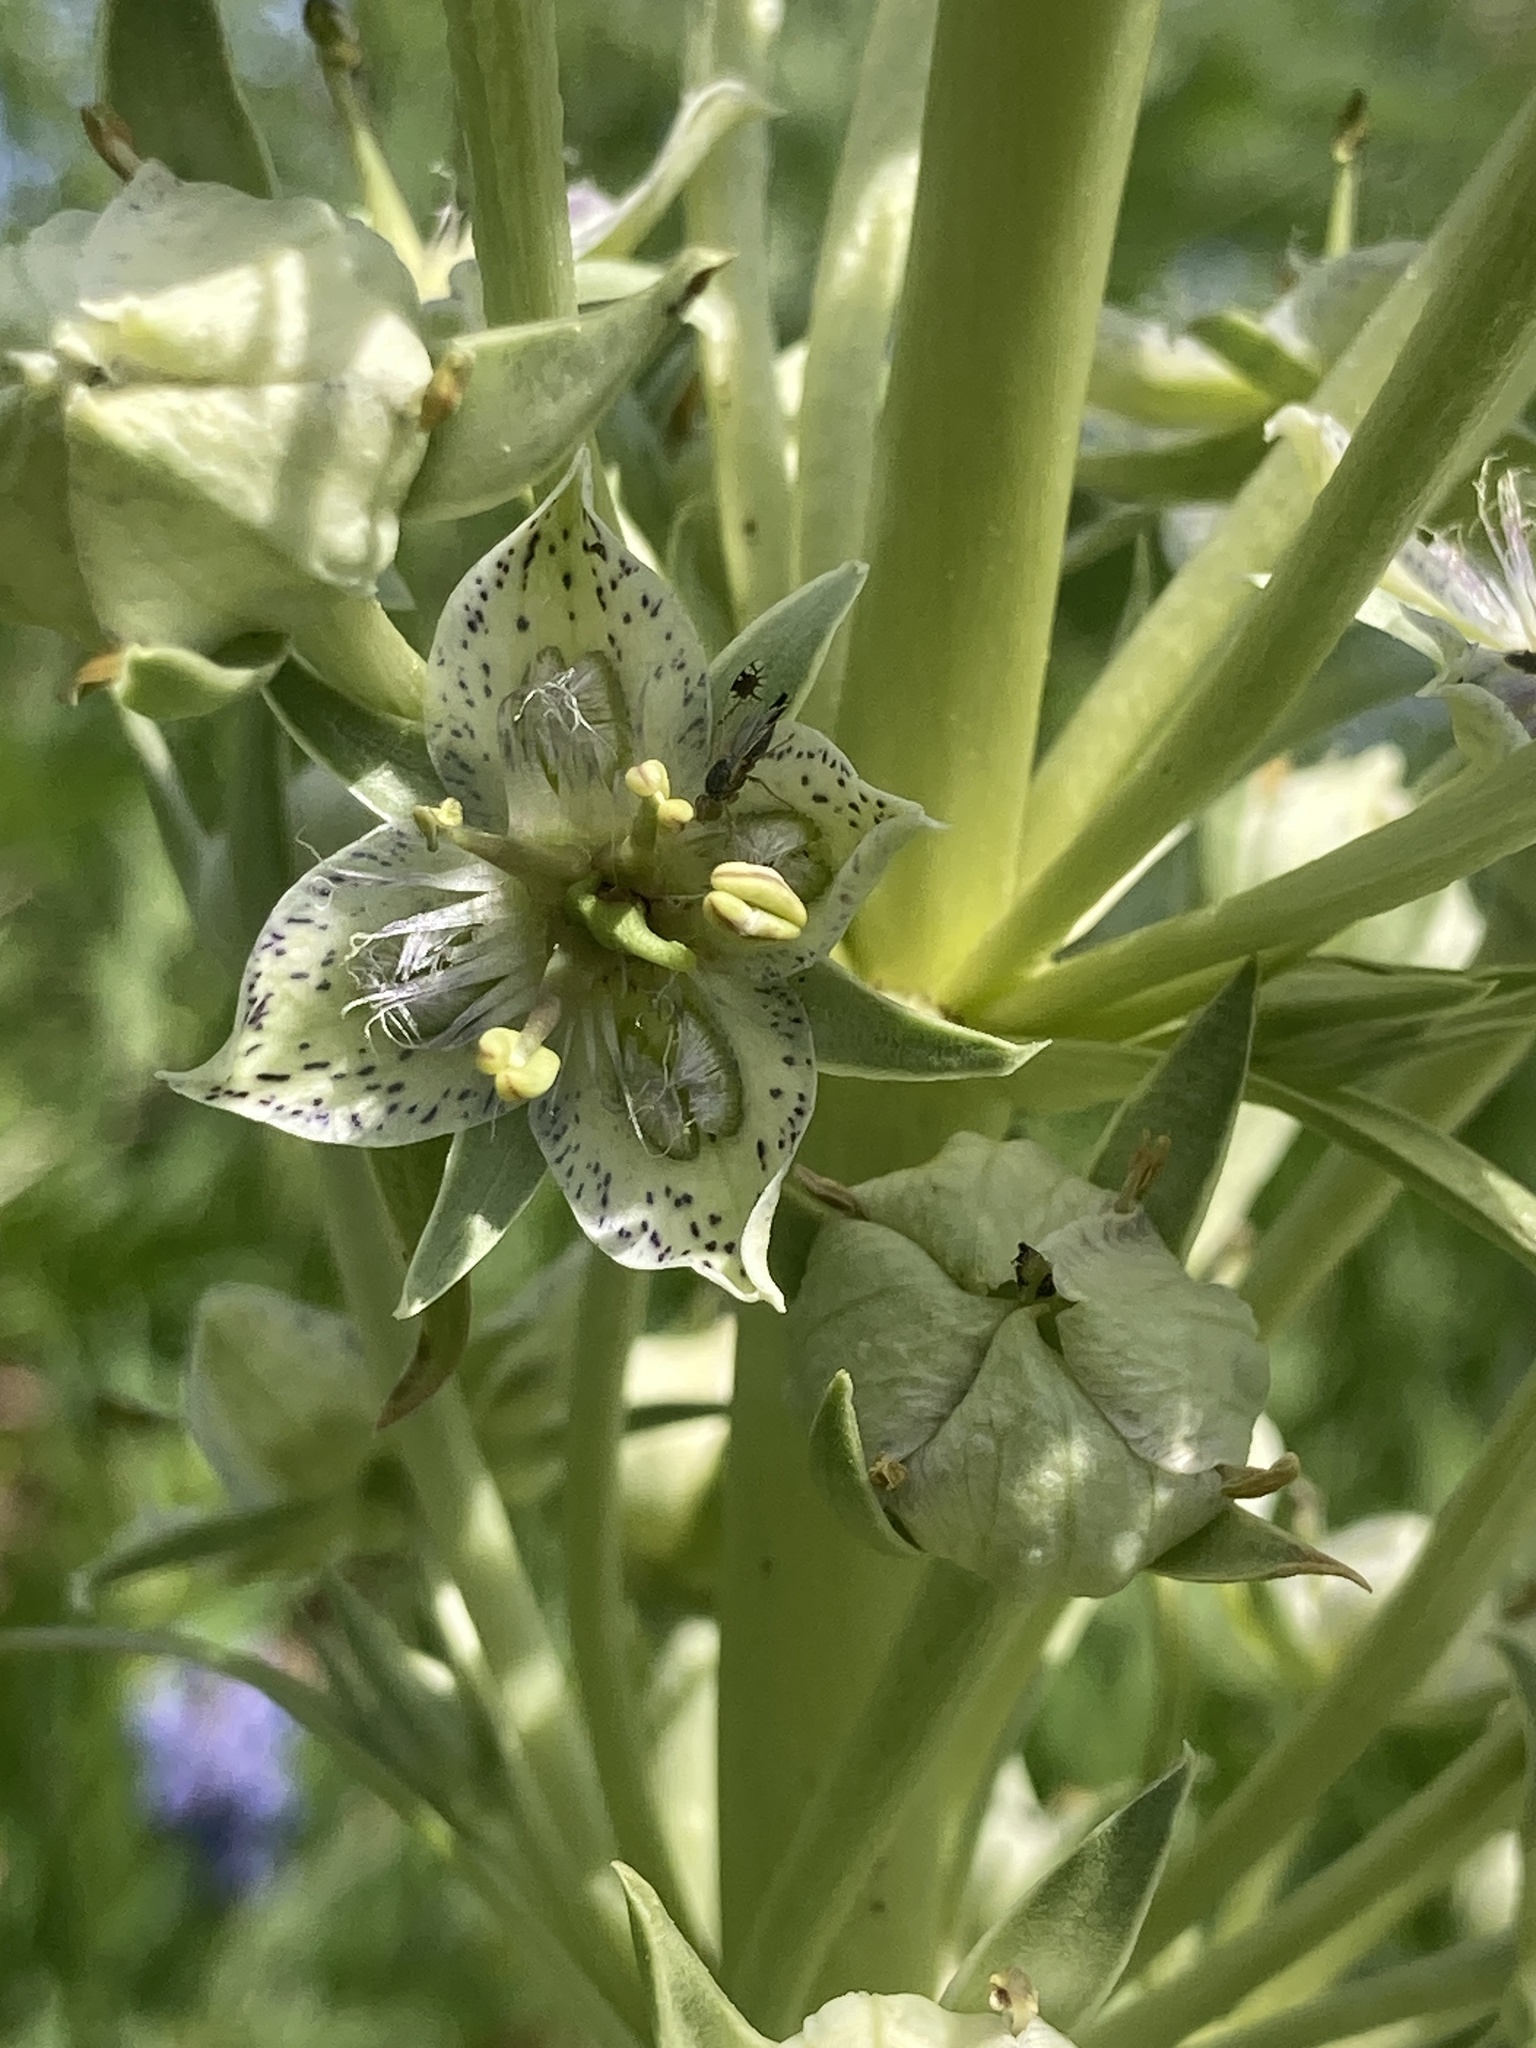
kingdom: Plantae
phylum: Tracheophyta
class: Magnoliopsida
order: Gentianales
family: Gentianaceae
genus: Frasera
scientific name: Frasera speciosa
